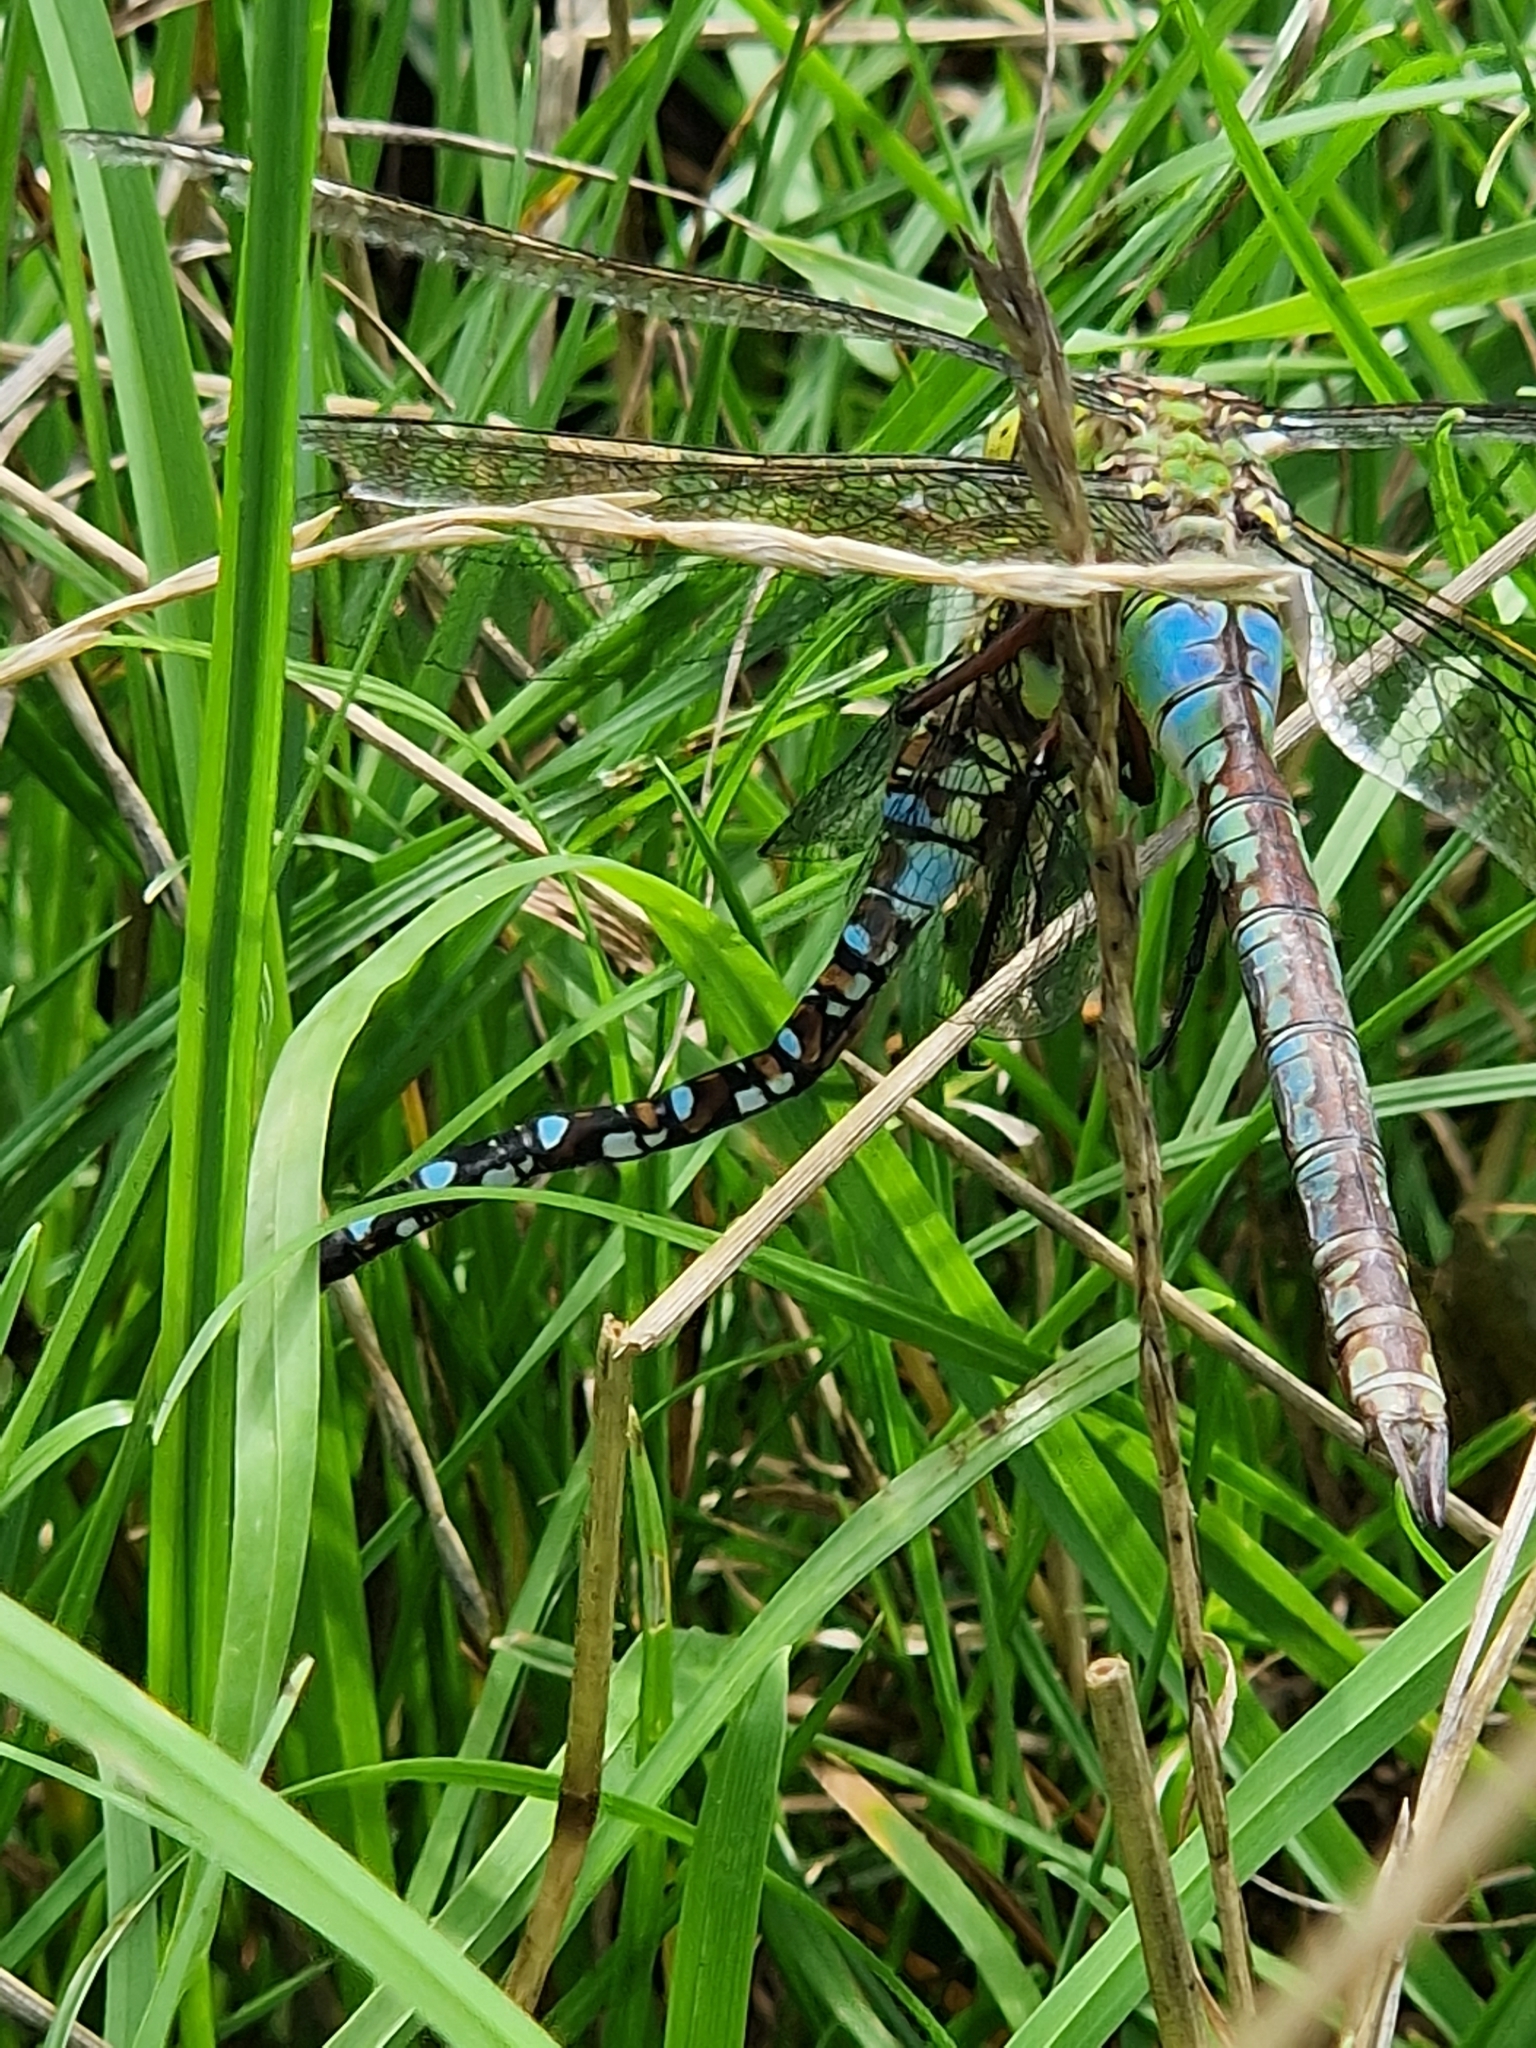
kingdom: Animalia
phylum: Arthropoda
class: Insecta
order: Odonata
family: Aeshnidae
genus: Aeshna
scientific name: Aeshna cyanea
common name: Southern hawker
